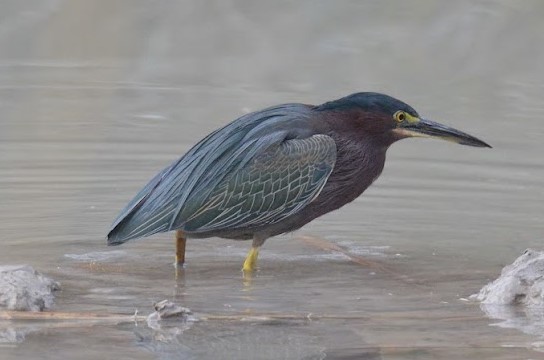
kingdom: Animalia
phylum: Chordata
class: Aves
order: Pelecaniformes
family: Ardeidae
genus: Butorides
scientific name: Butorides virescens
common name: Green heron
